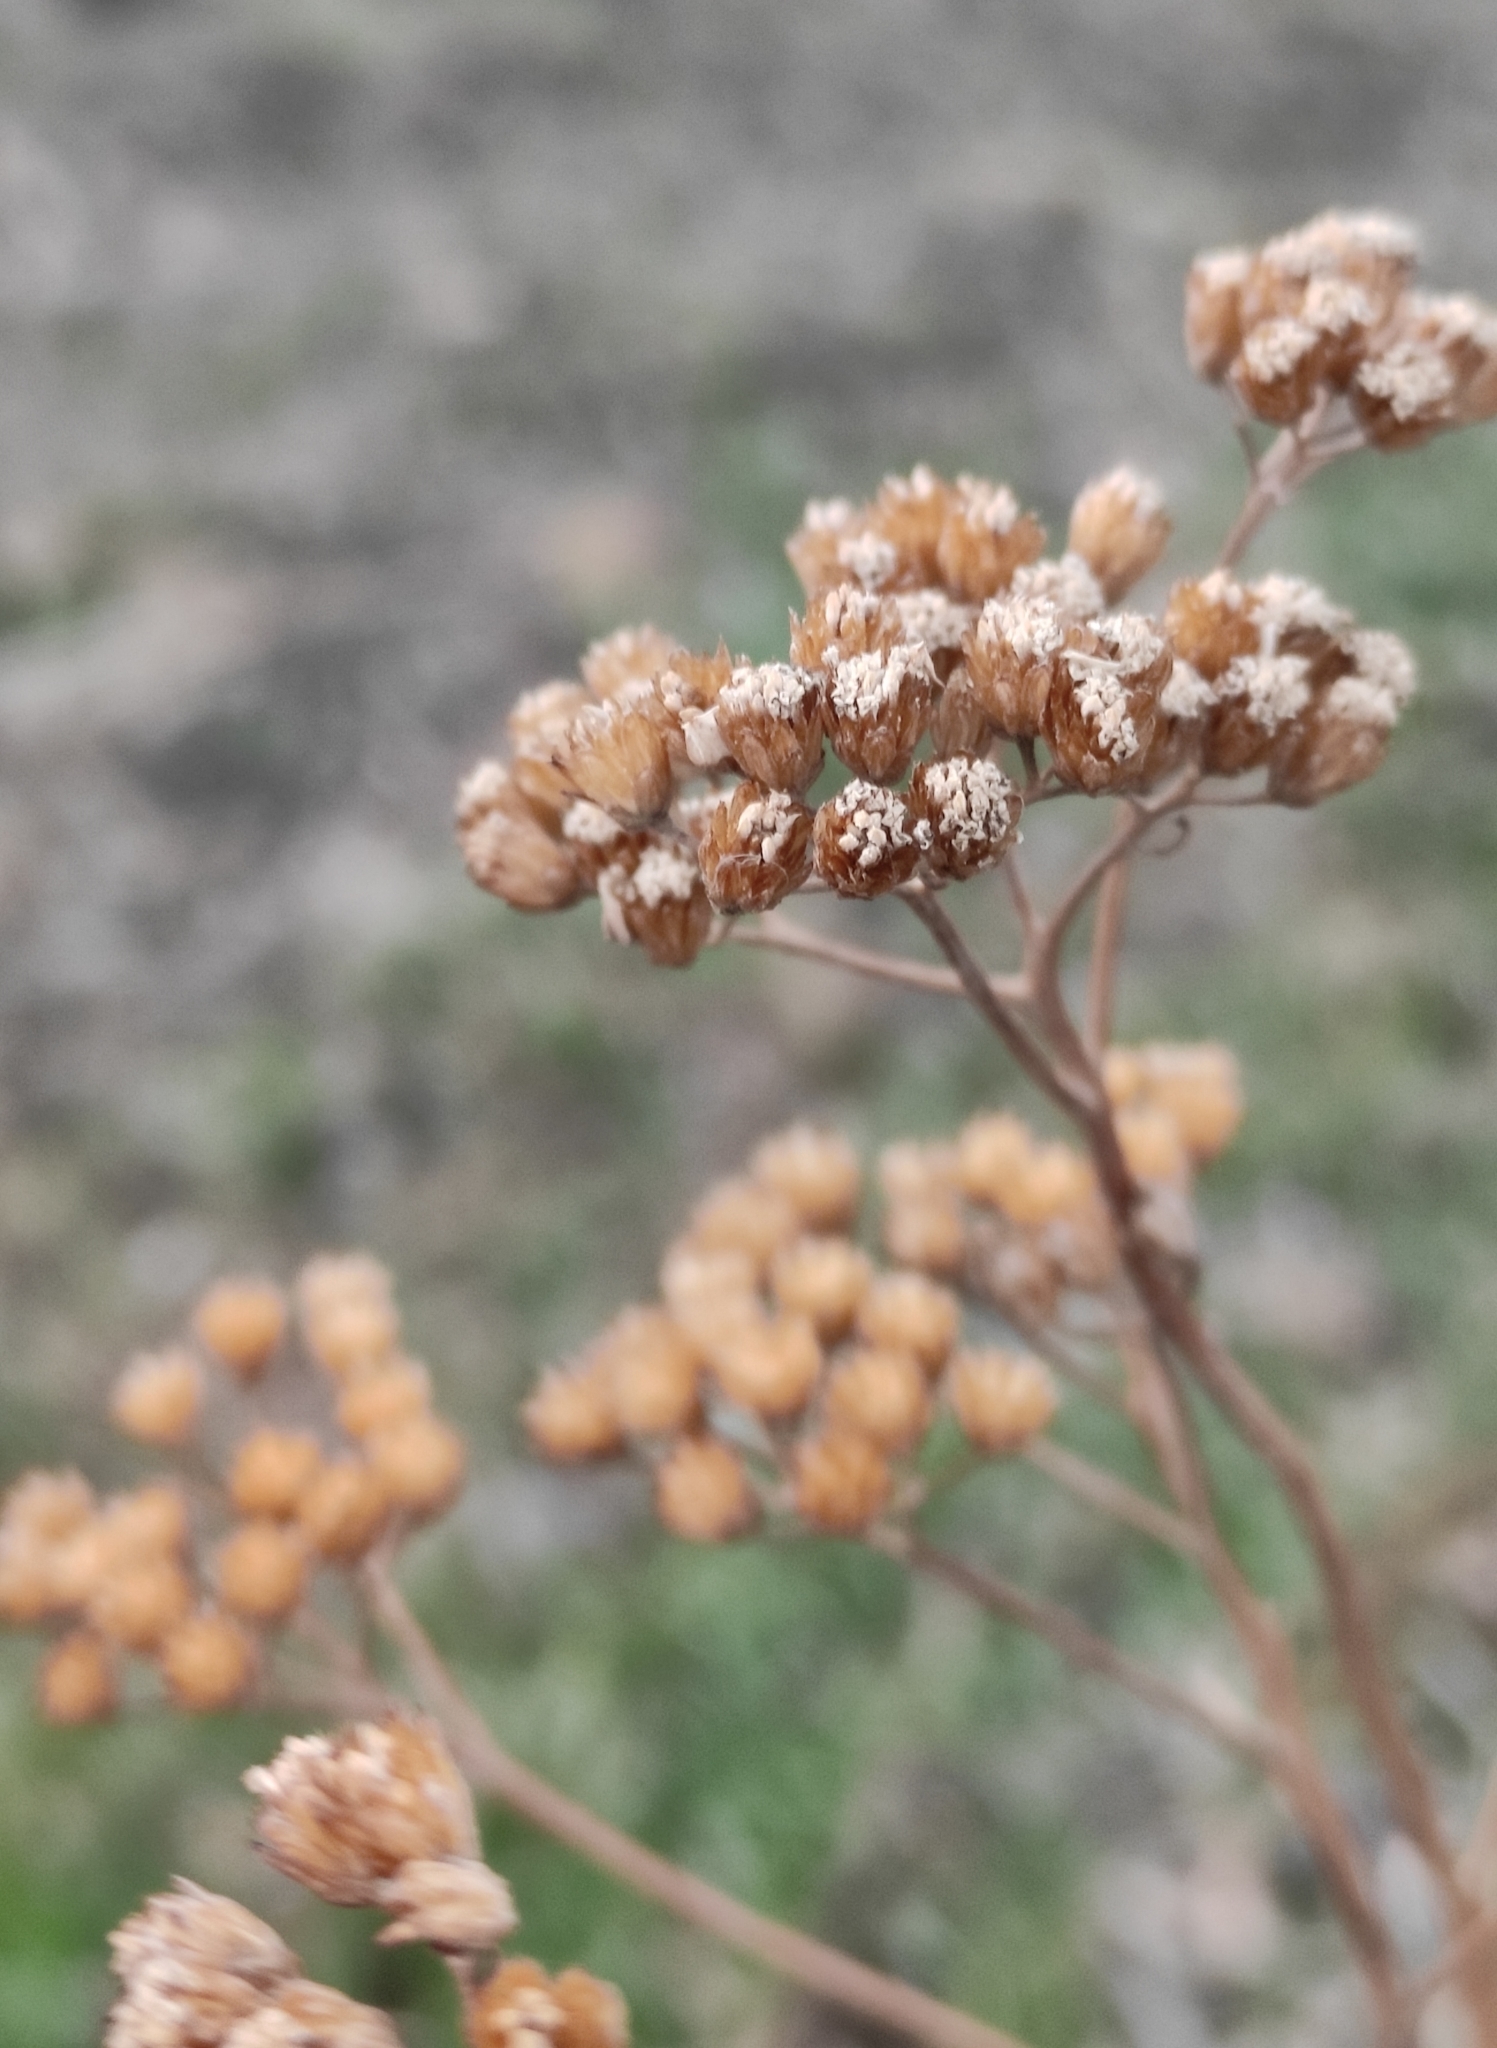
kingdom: Plantae
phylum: Tracheophyta
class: Magnoliopsida
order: Asterales
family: Asteraceae
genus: Achillea
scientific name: Achillea asiatica
